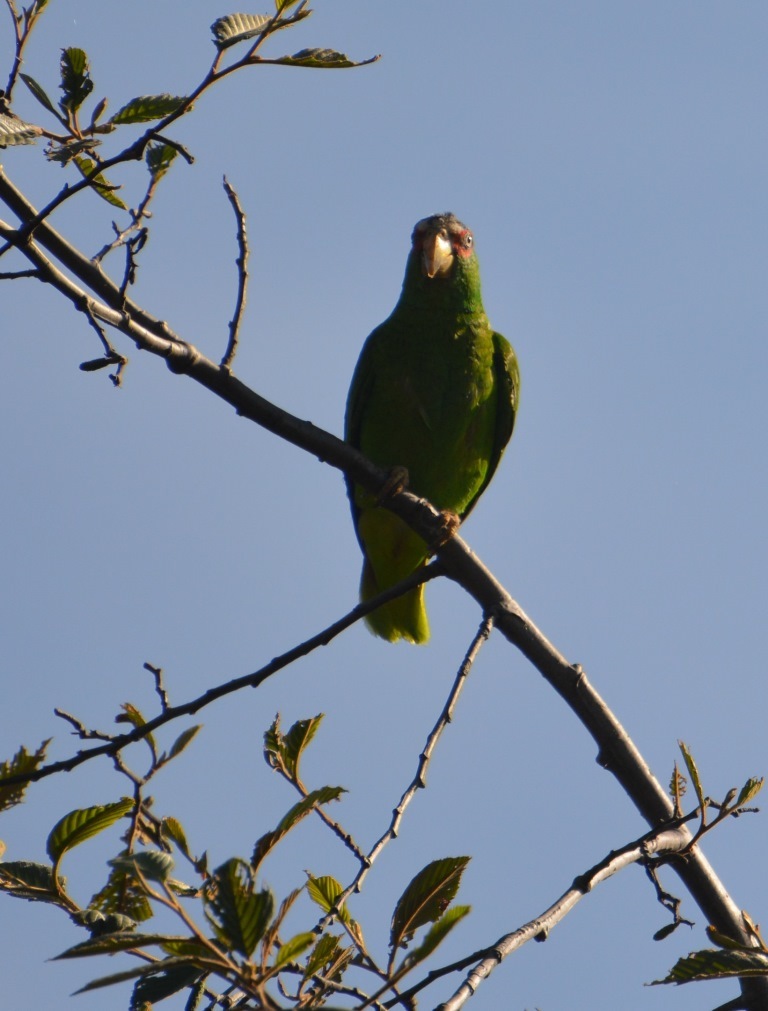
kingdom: Animalia
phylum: Chordata
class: Aves
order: Psittaciformes
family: Psittacidae
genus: Amazona
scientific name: Amazona albifrons
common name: White-fronted amazon
